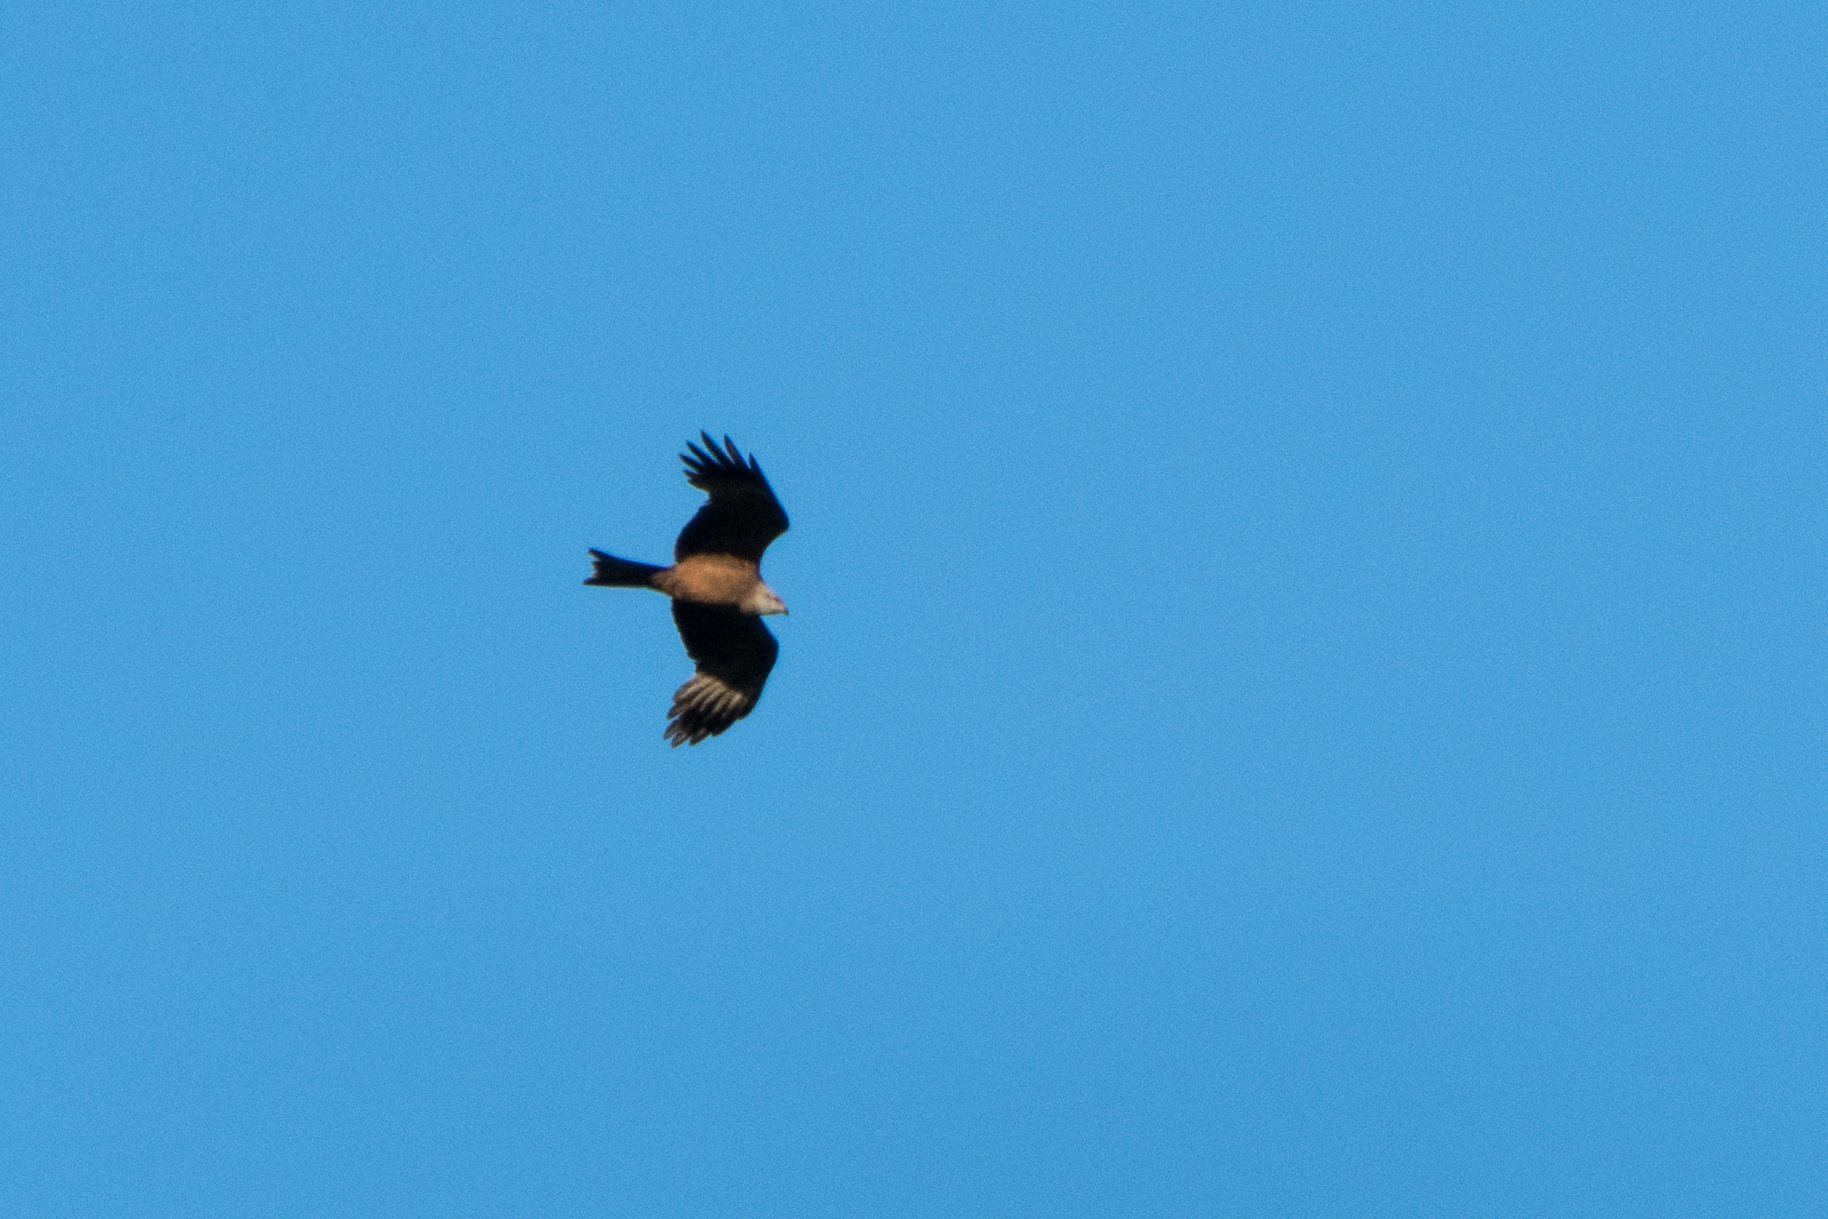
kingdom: Animalia
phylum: Chordata
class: Aves
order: Accipitriformes
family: Accipitridae
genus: Milvus
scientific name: Milvus migrans
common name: Black kite
